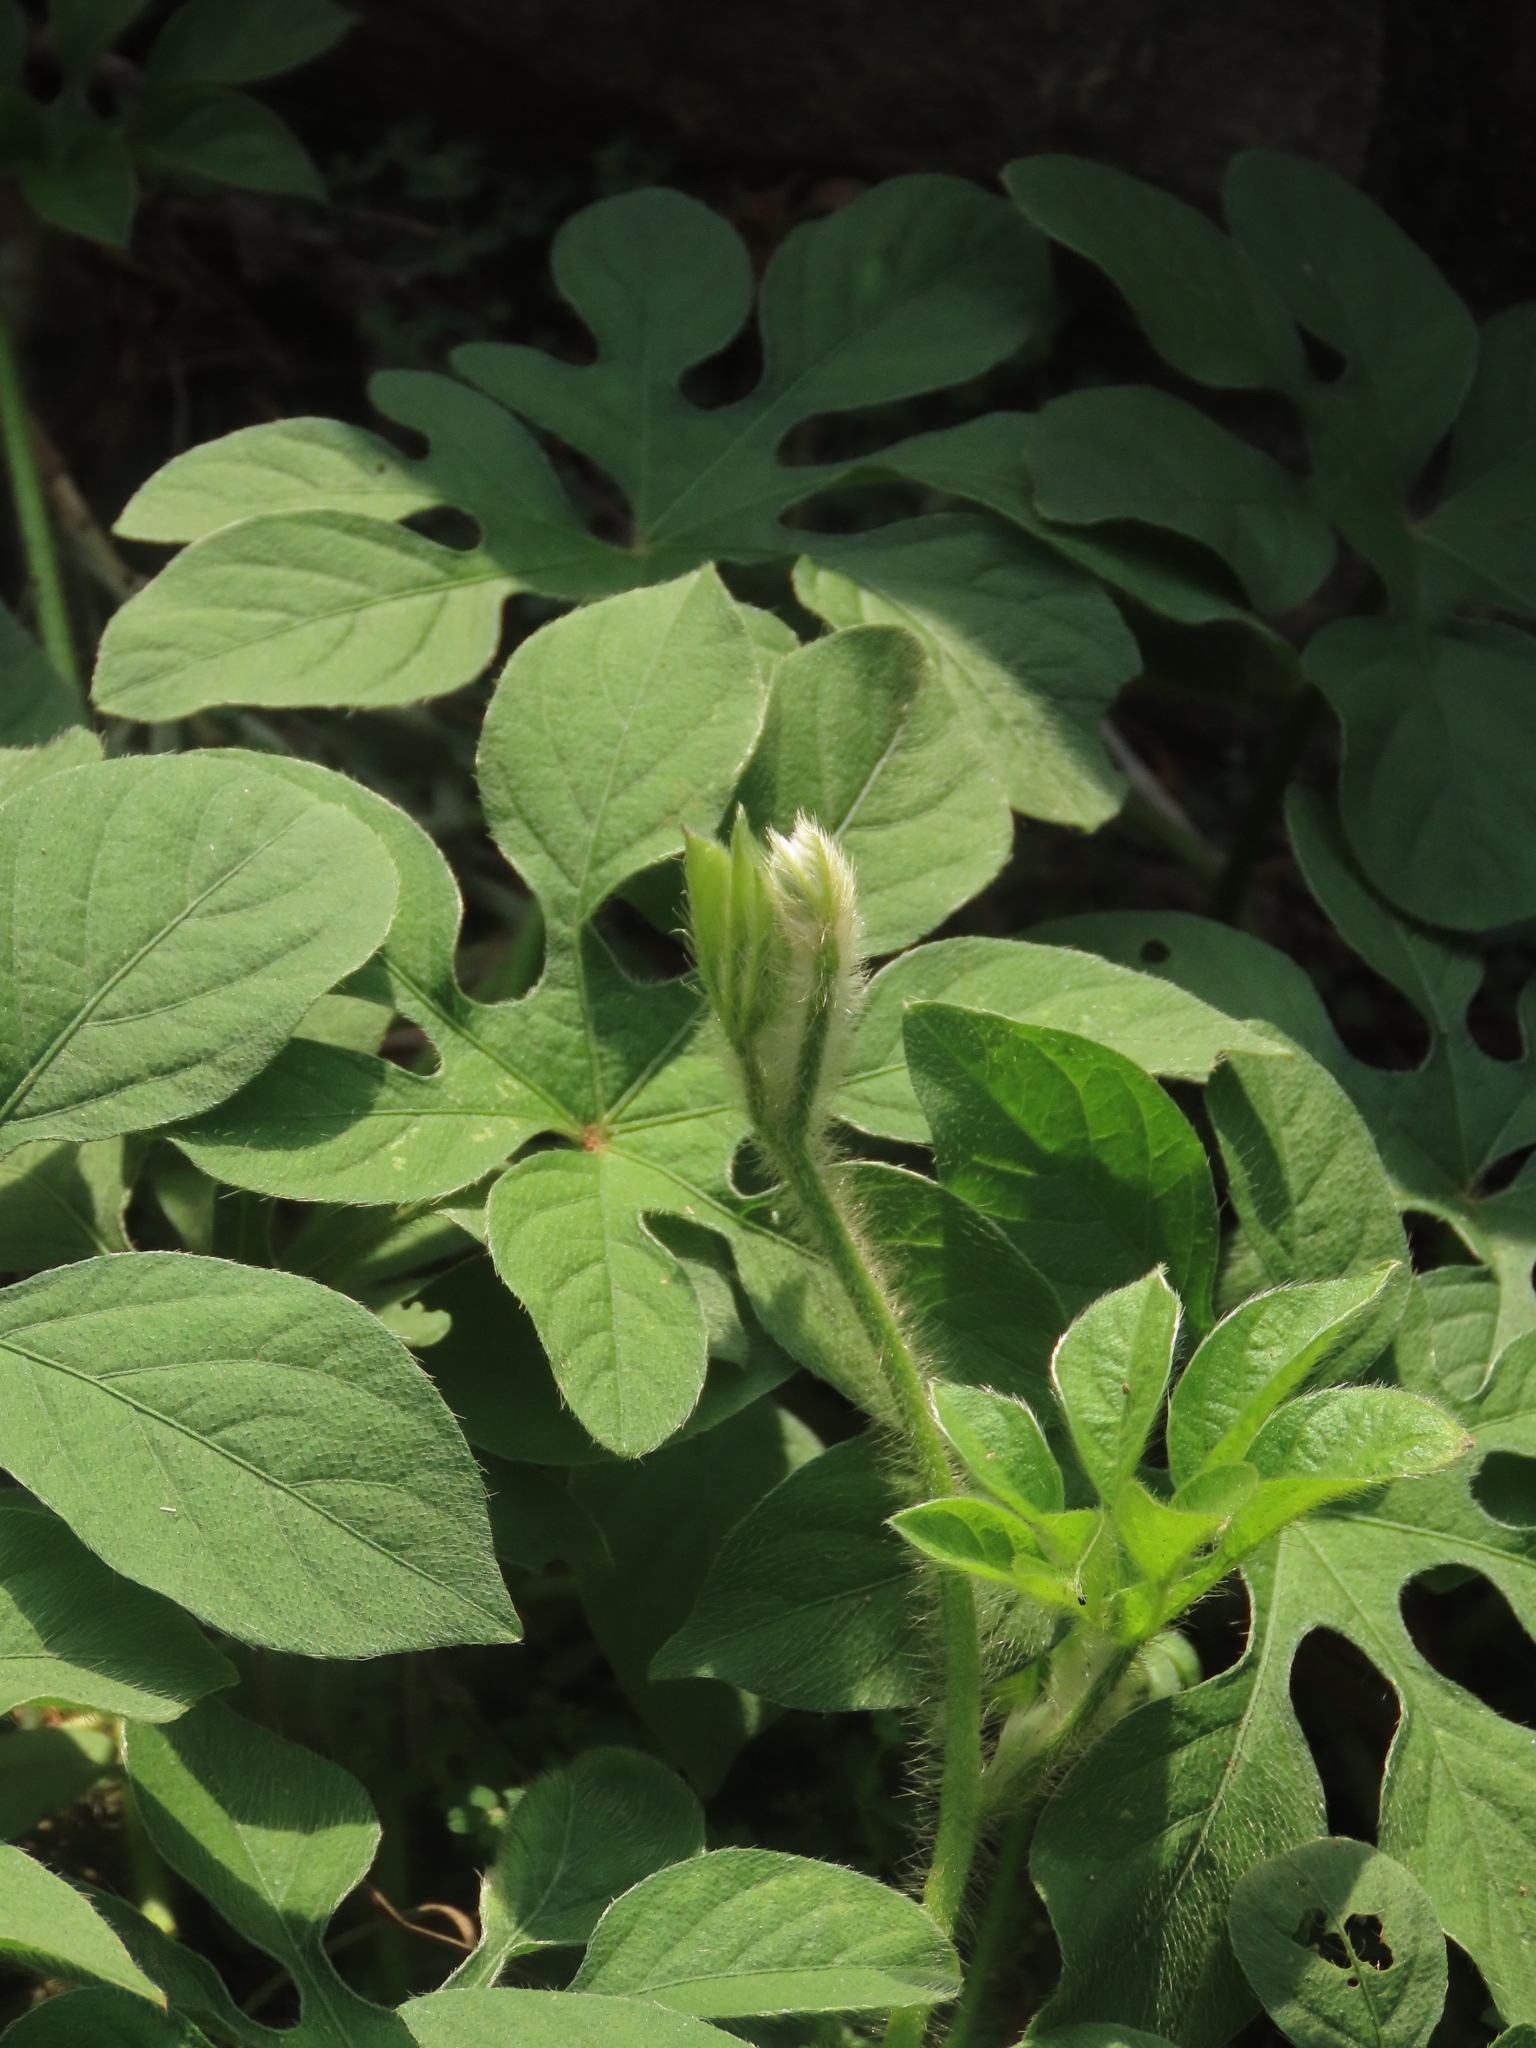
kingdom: Plantae
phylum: Tracheophyta
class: Magnoliopsida
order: Solanales
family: Convolvulaceae
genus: Ipomoea
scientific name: Ipomoea pes-tigridis
